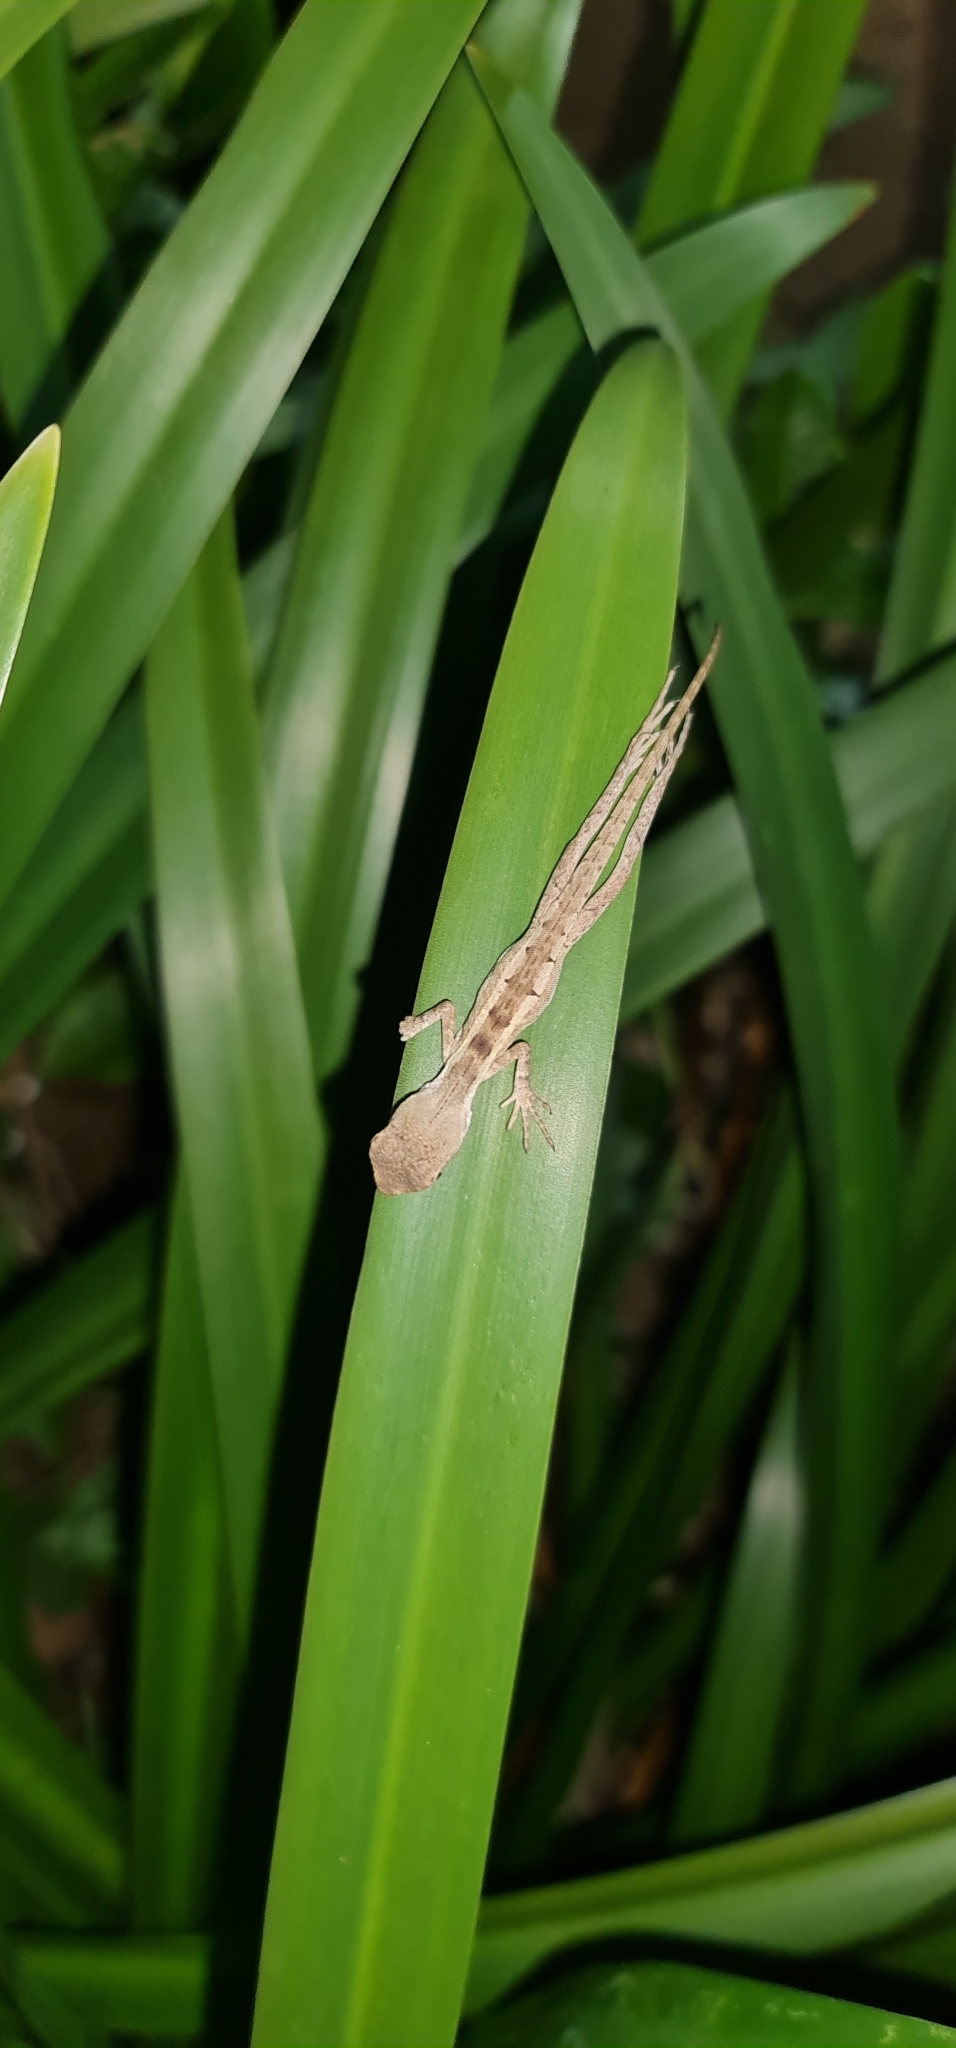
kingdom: Animalia
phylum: Chordata
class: Squamata
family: Agamidae
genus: Tropicagama
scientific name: Tropicagama temporalis
